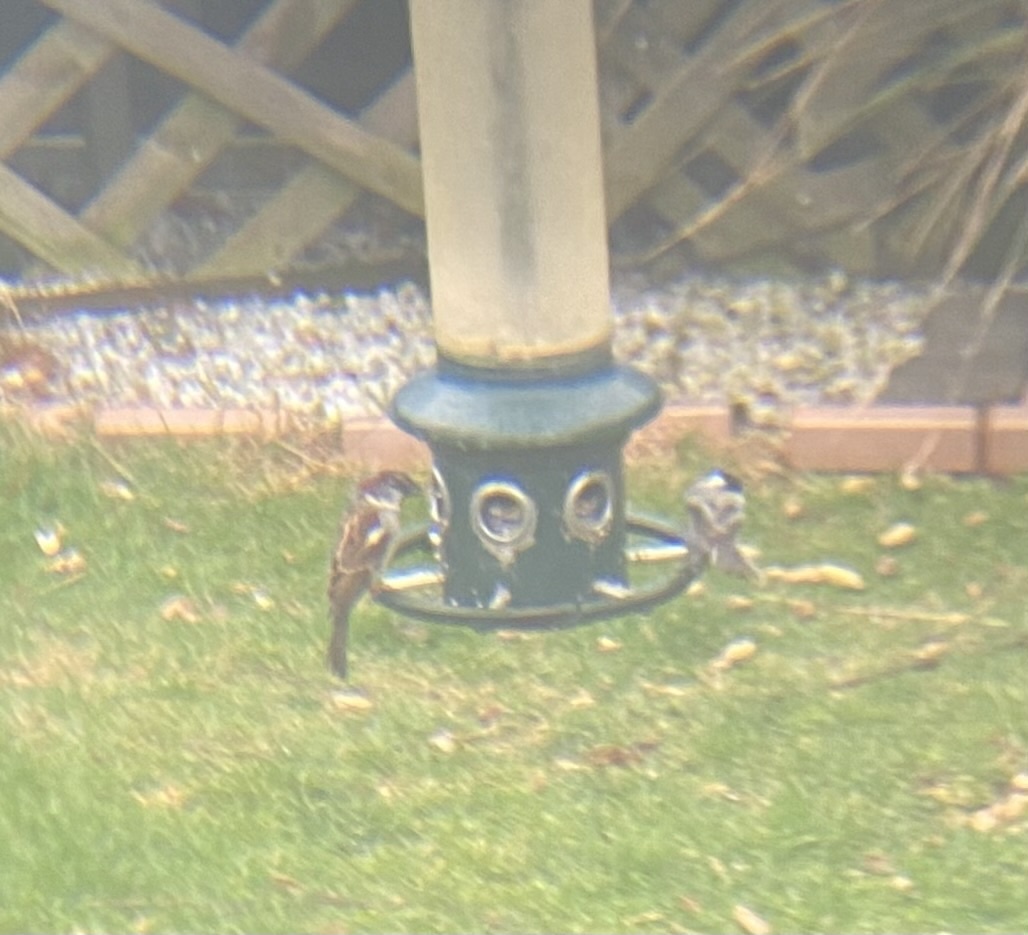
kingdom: Animalia
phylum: Chordata
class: Aves
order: Passeriformes
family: Passeridae
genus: Passer
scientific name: Passer domesticus
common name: House sparrow
